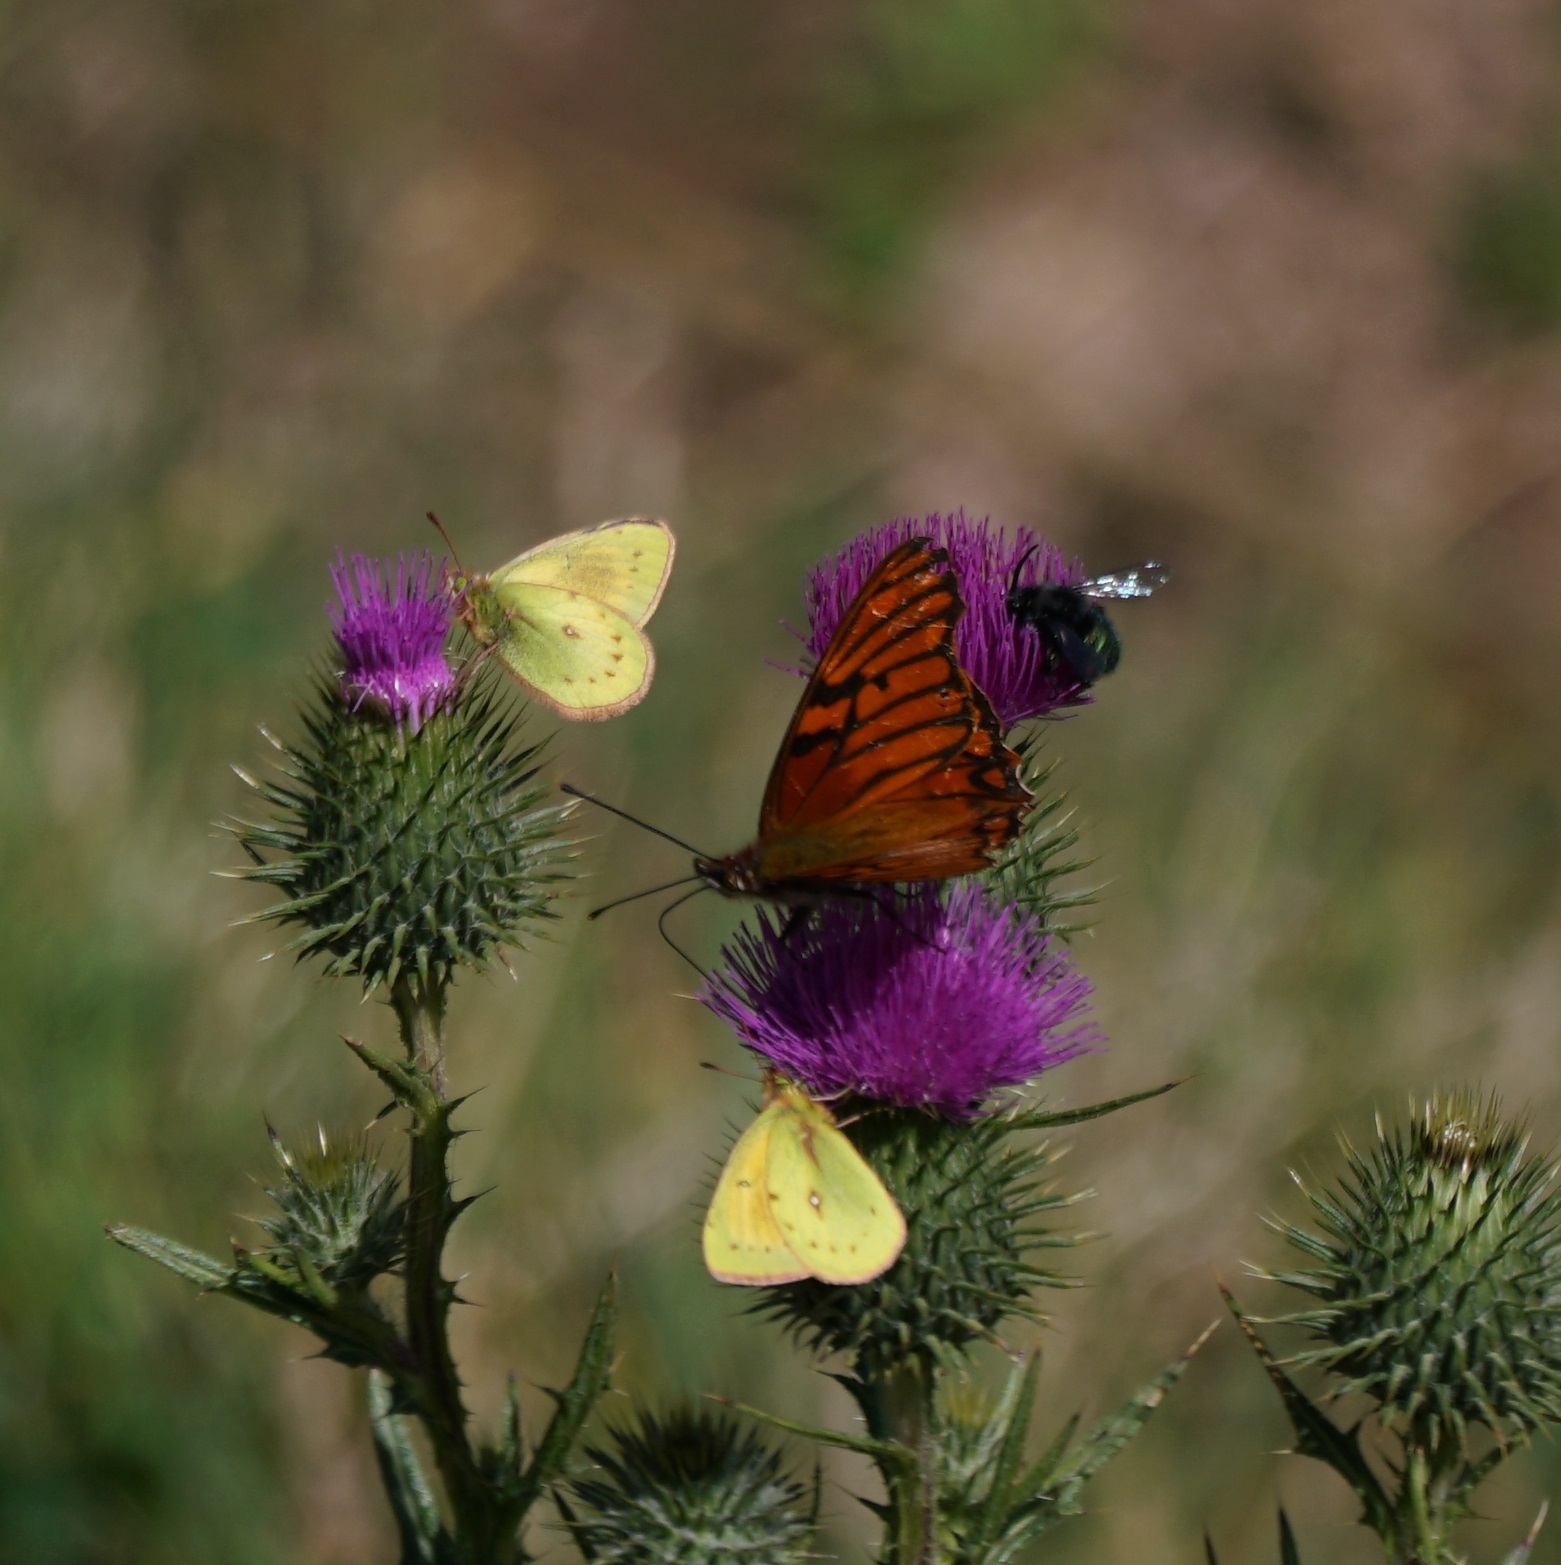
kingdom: Animalia
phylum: Arthropoda
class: Insecta
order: Hymenoptera
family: Apidae
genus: Mesonychium
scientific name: Mesonychium garleppi
